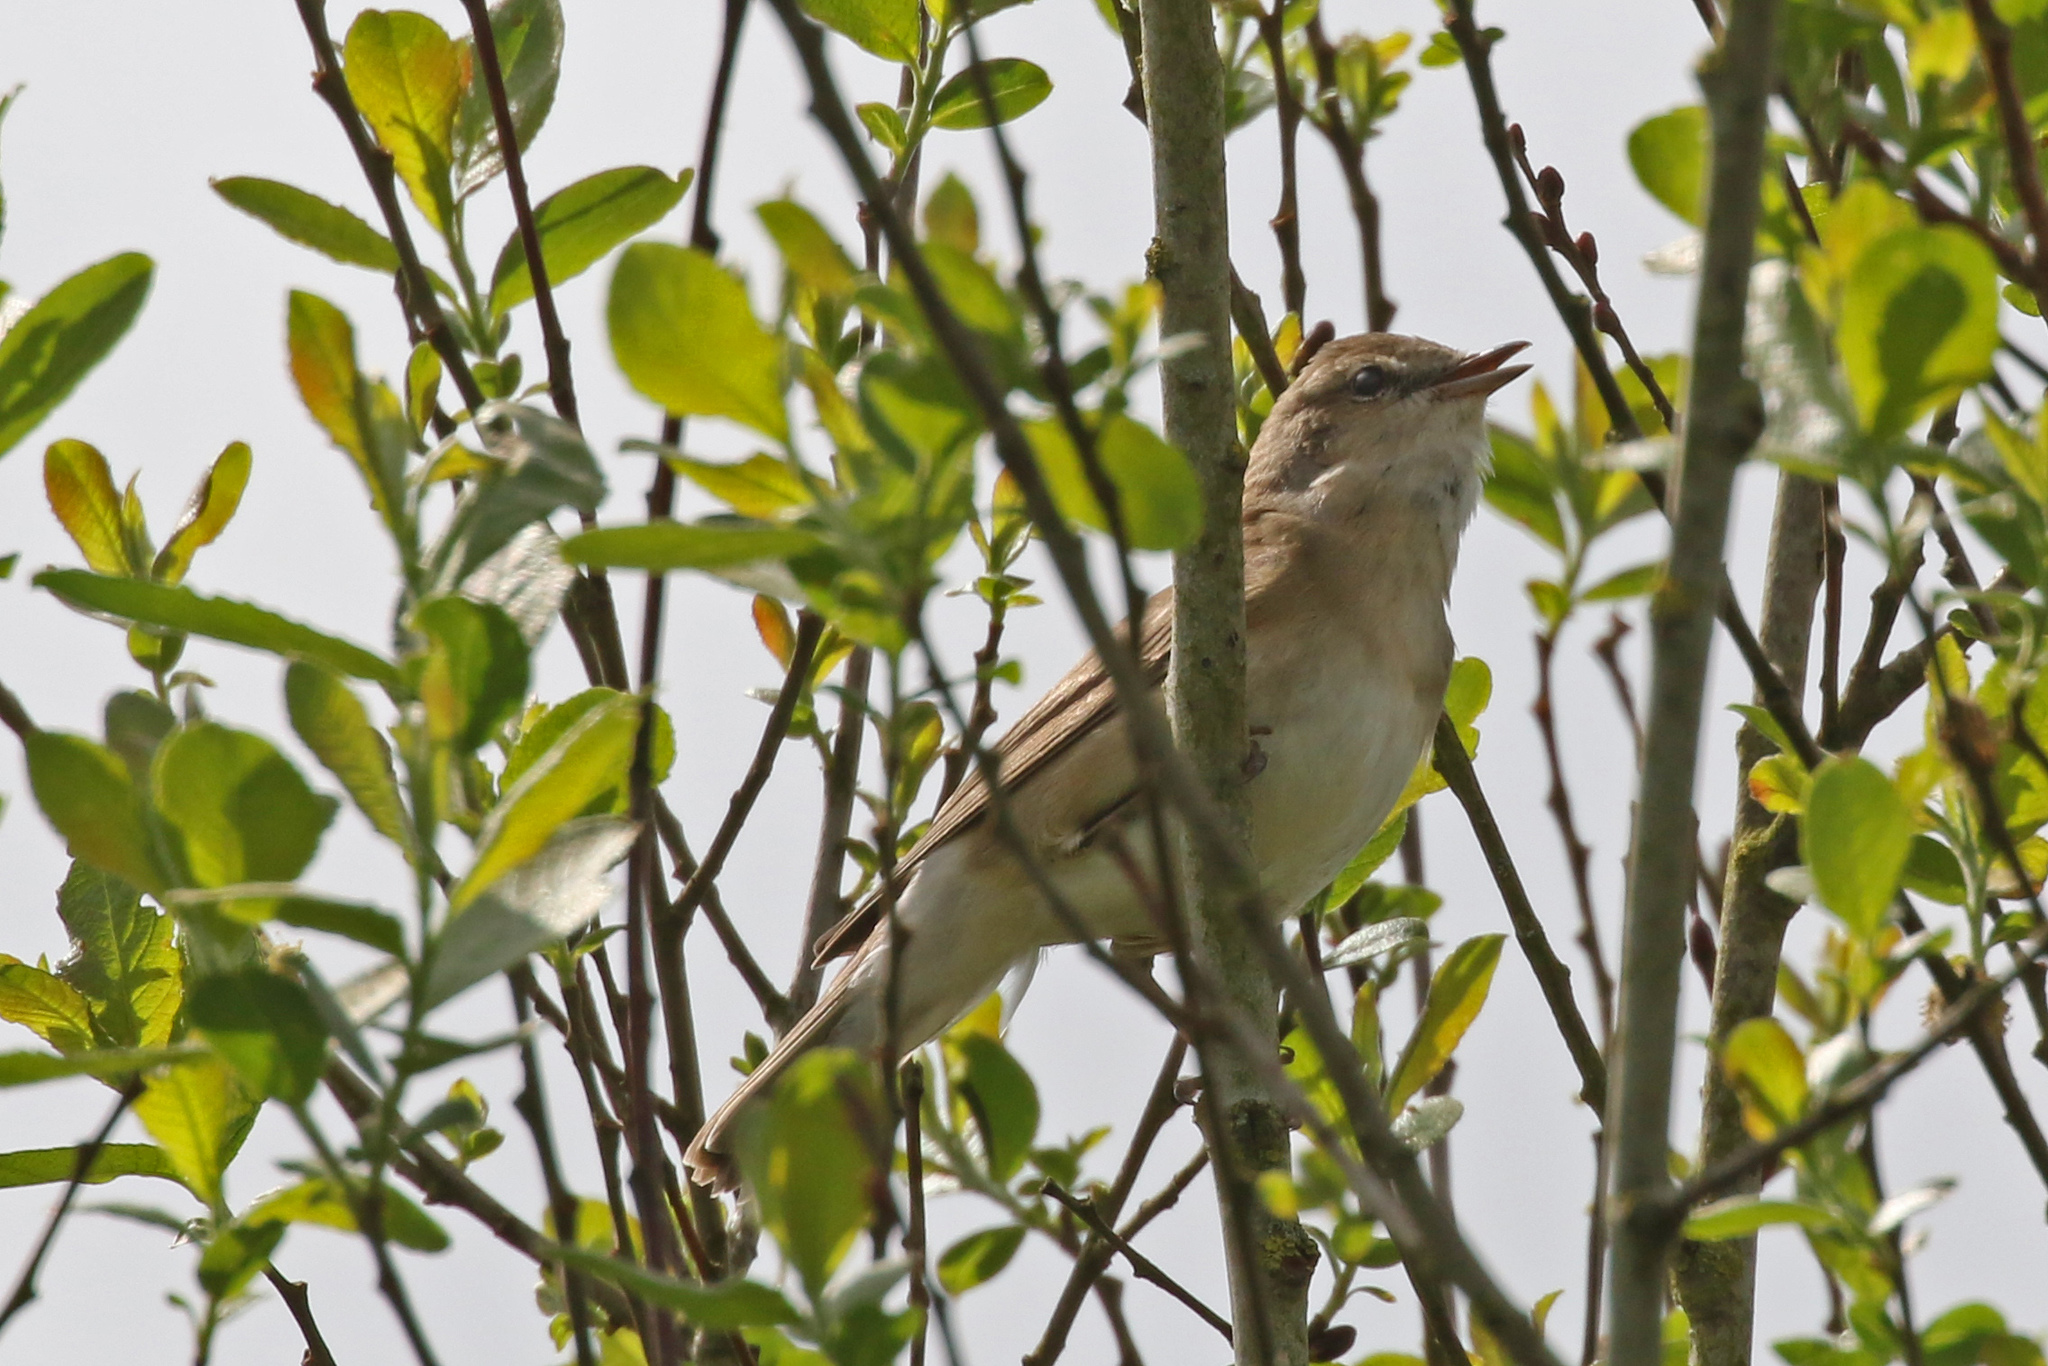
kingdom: Animalia
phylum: Chordata
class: Aves
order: Passeriformes
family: Sylviidae
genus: Sylvia
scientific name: Sylvia borin
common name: Garden warbler
